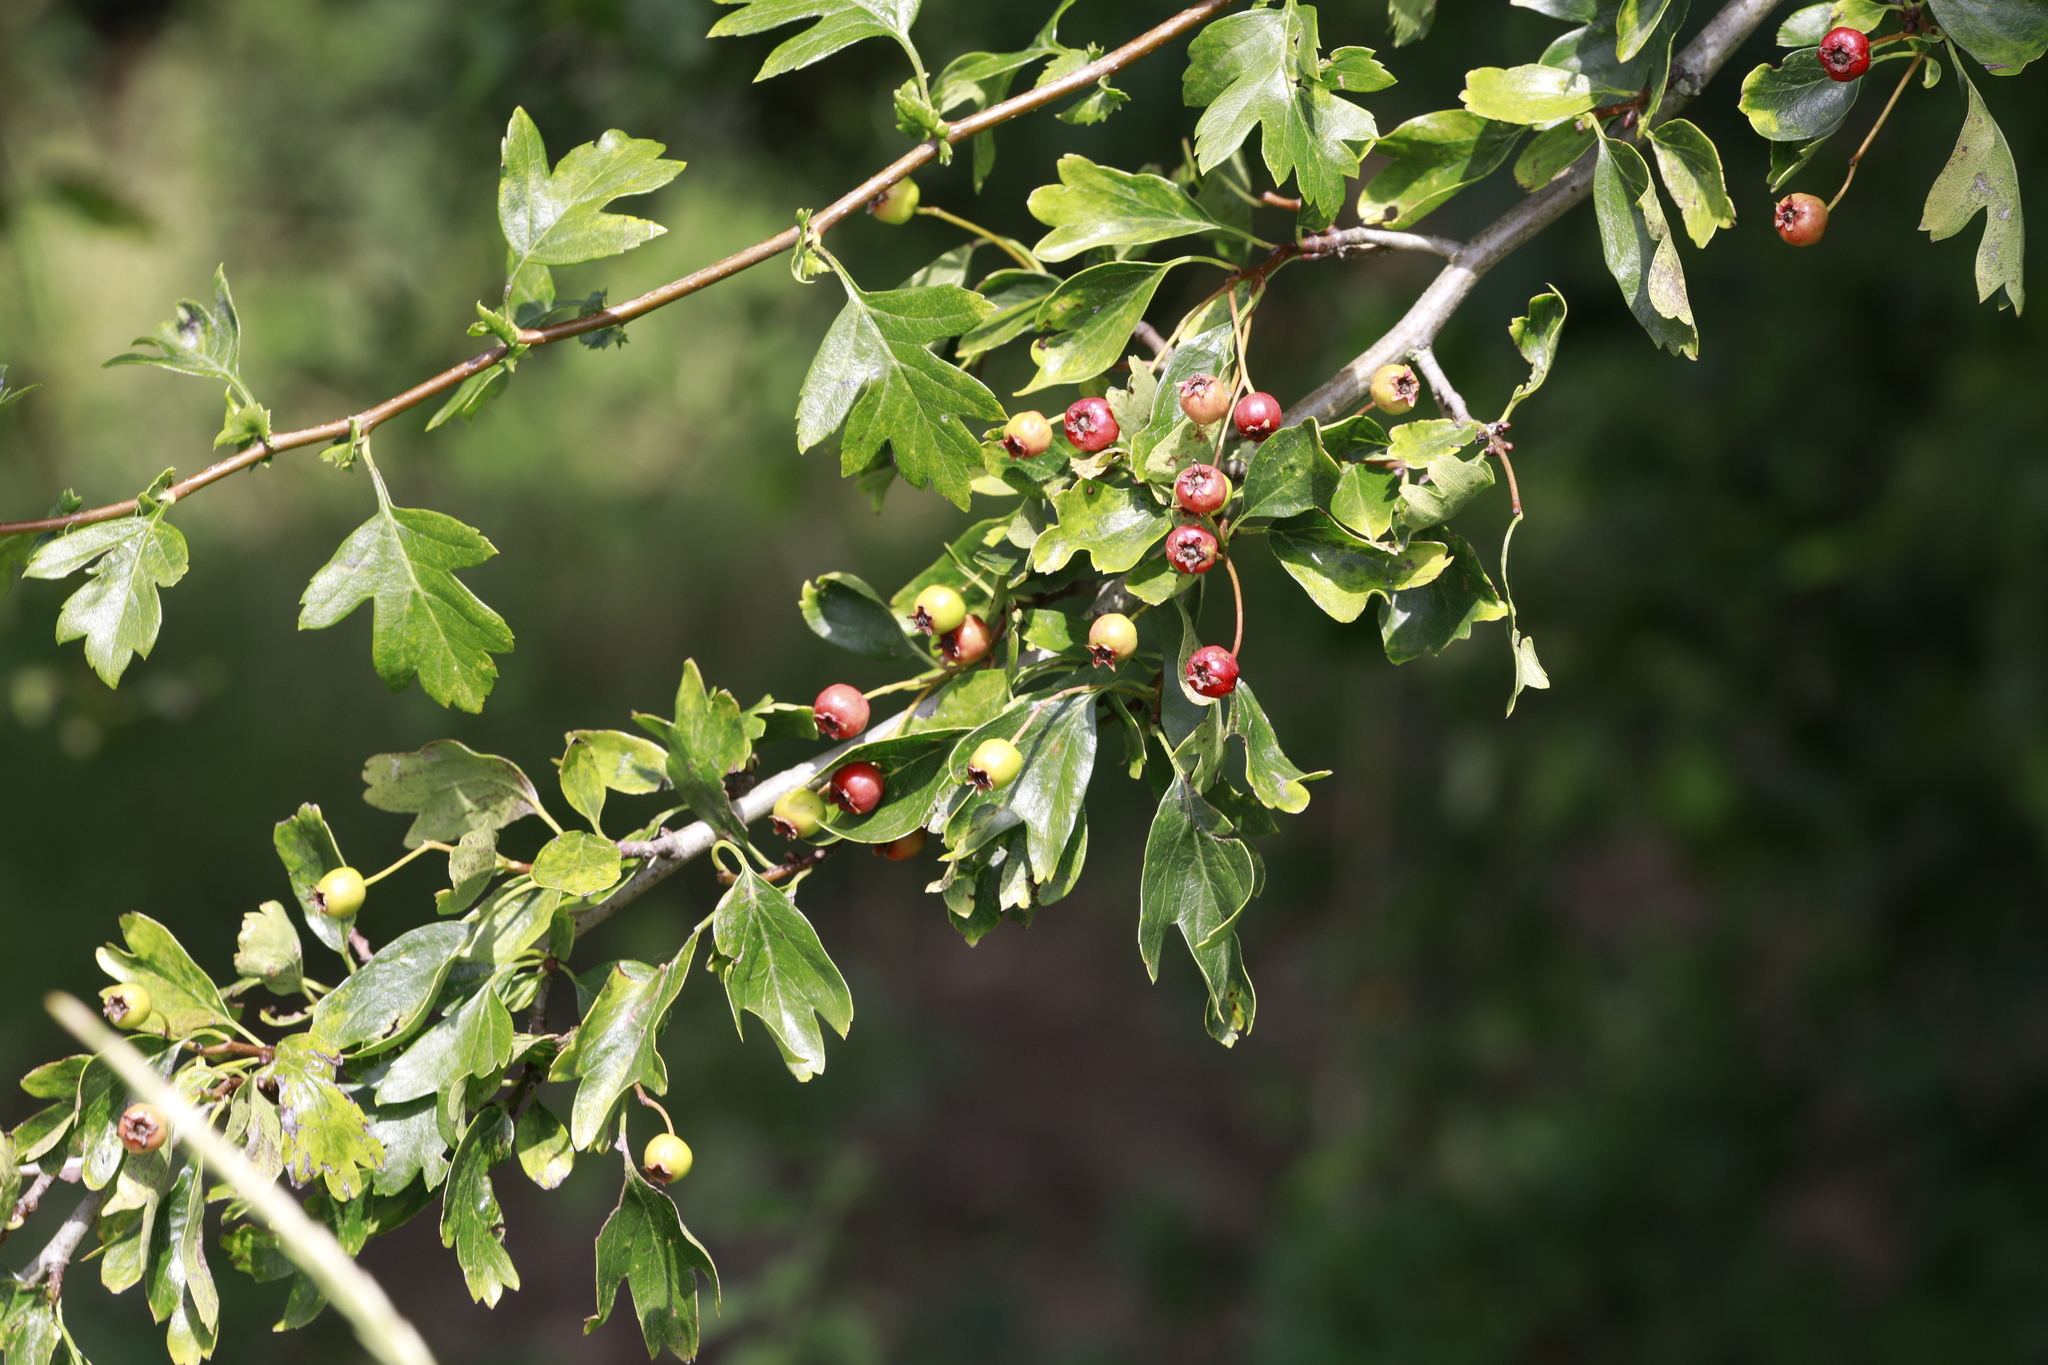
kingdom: Plantae
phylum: Tracheophyta
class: Magnoliopsida
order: Rosales
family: Rosaceae
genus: Crataegus
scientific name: Crataegus monogyna
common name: Hawthorn
